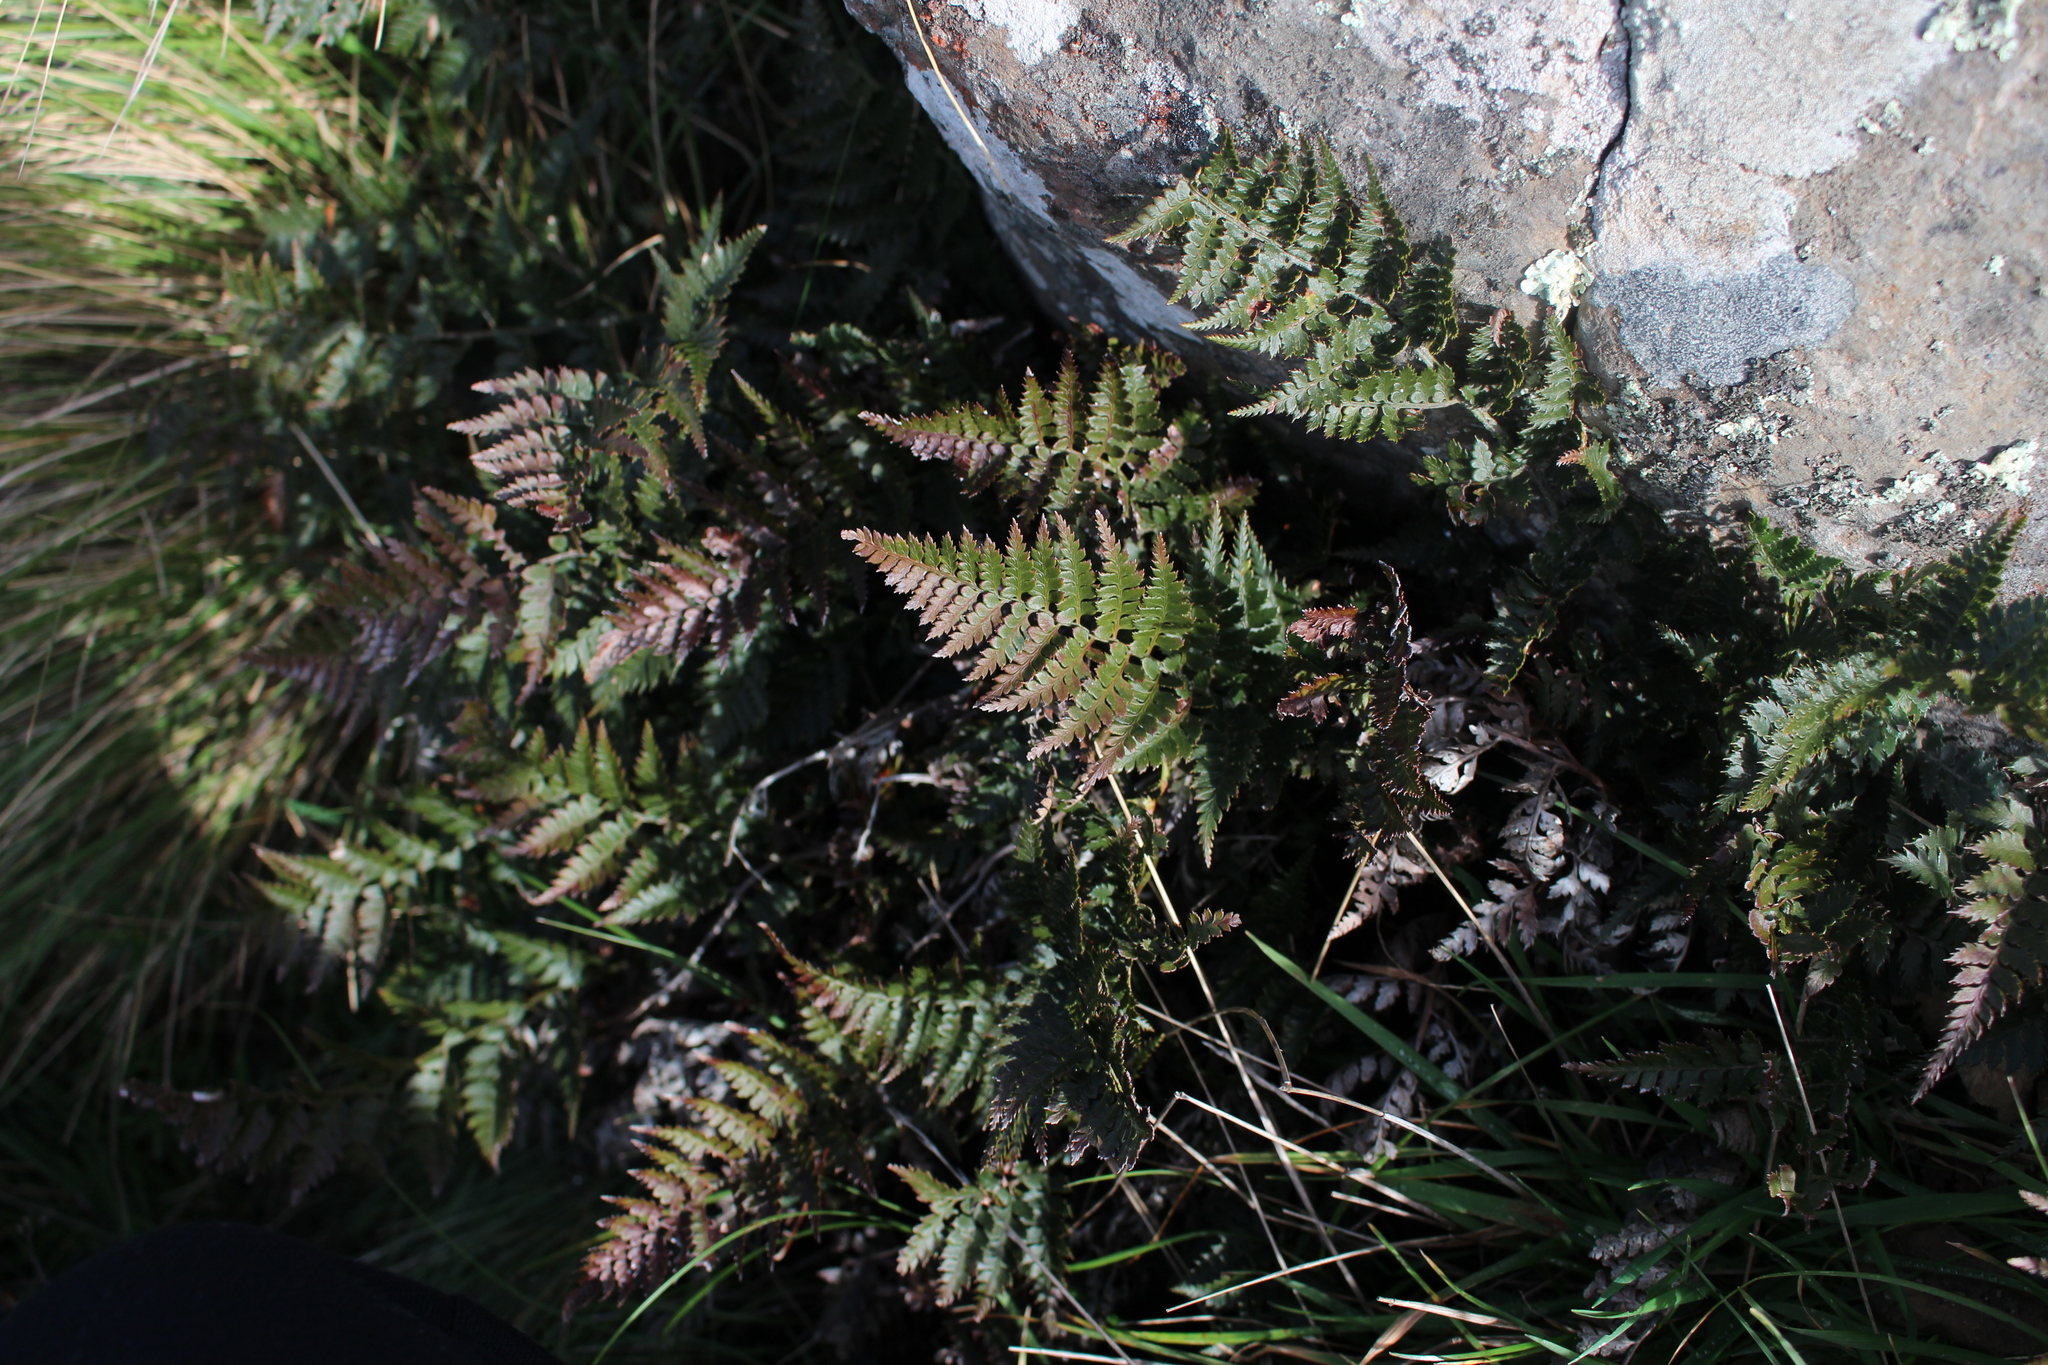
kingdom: Plantae
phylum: Tracheophyta
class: Polypodiopsida
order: Polypodiales
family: Dryopteridaceae
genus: Polystichum
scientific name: Polystichum oculatum
